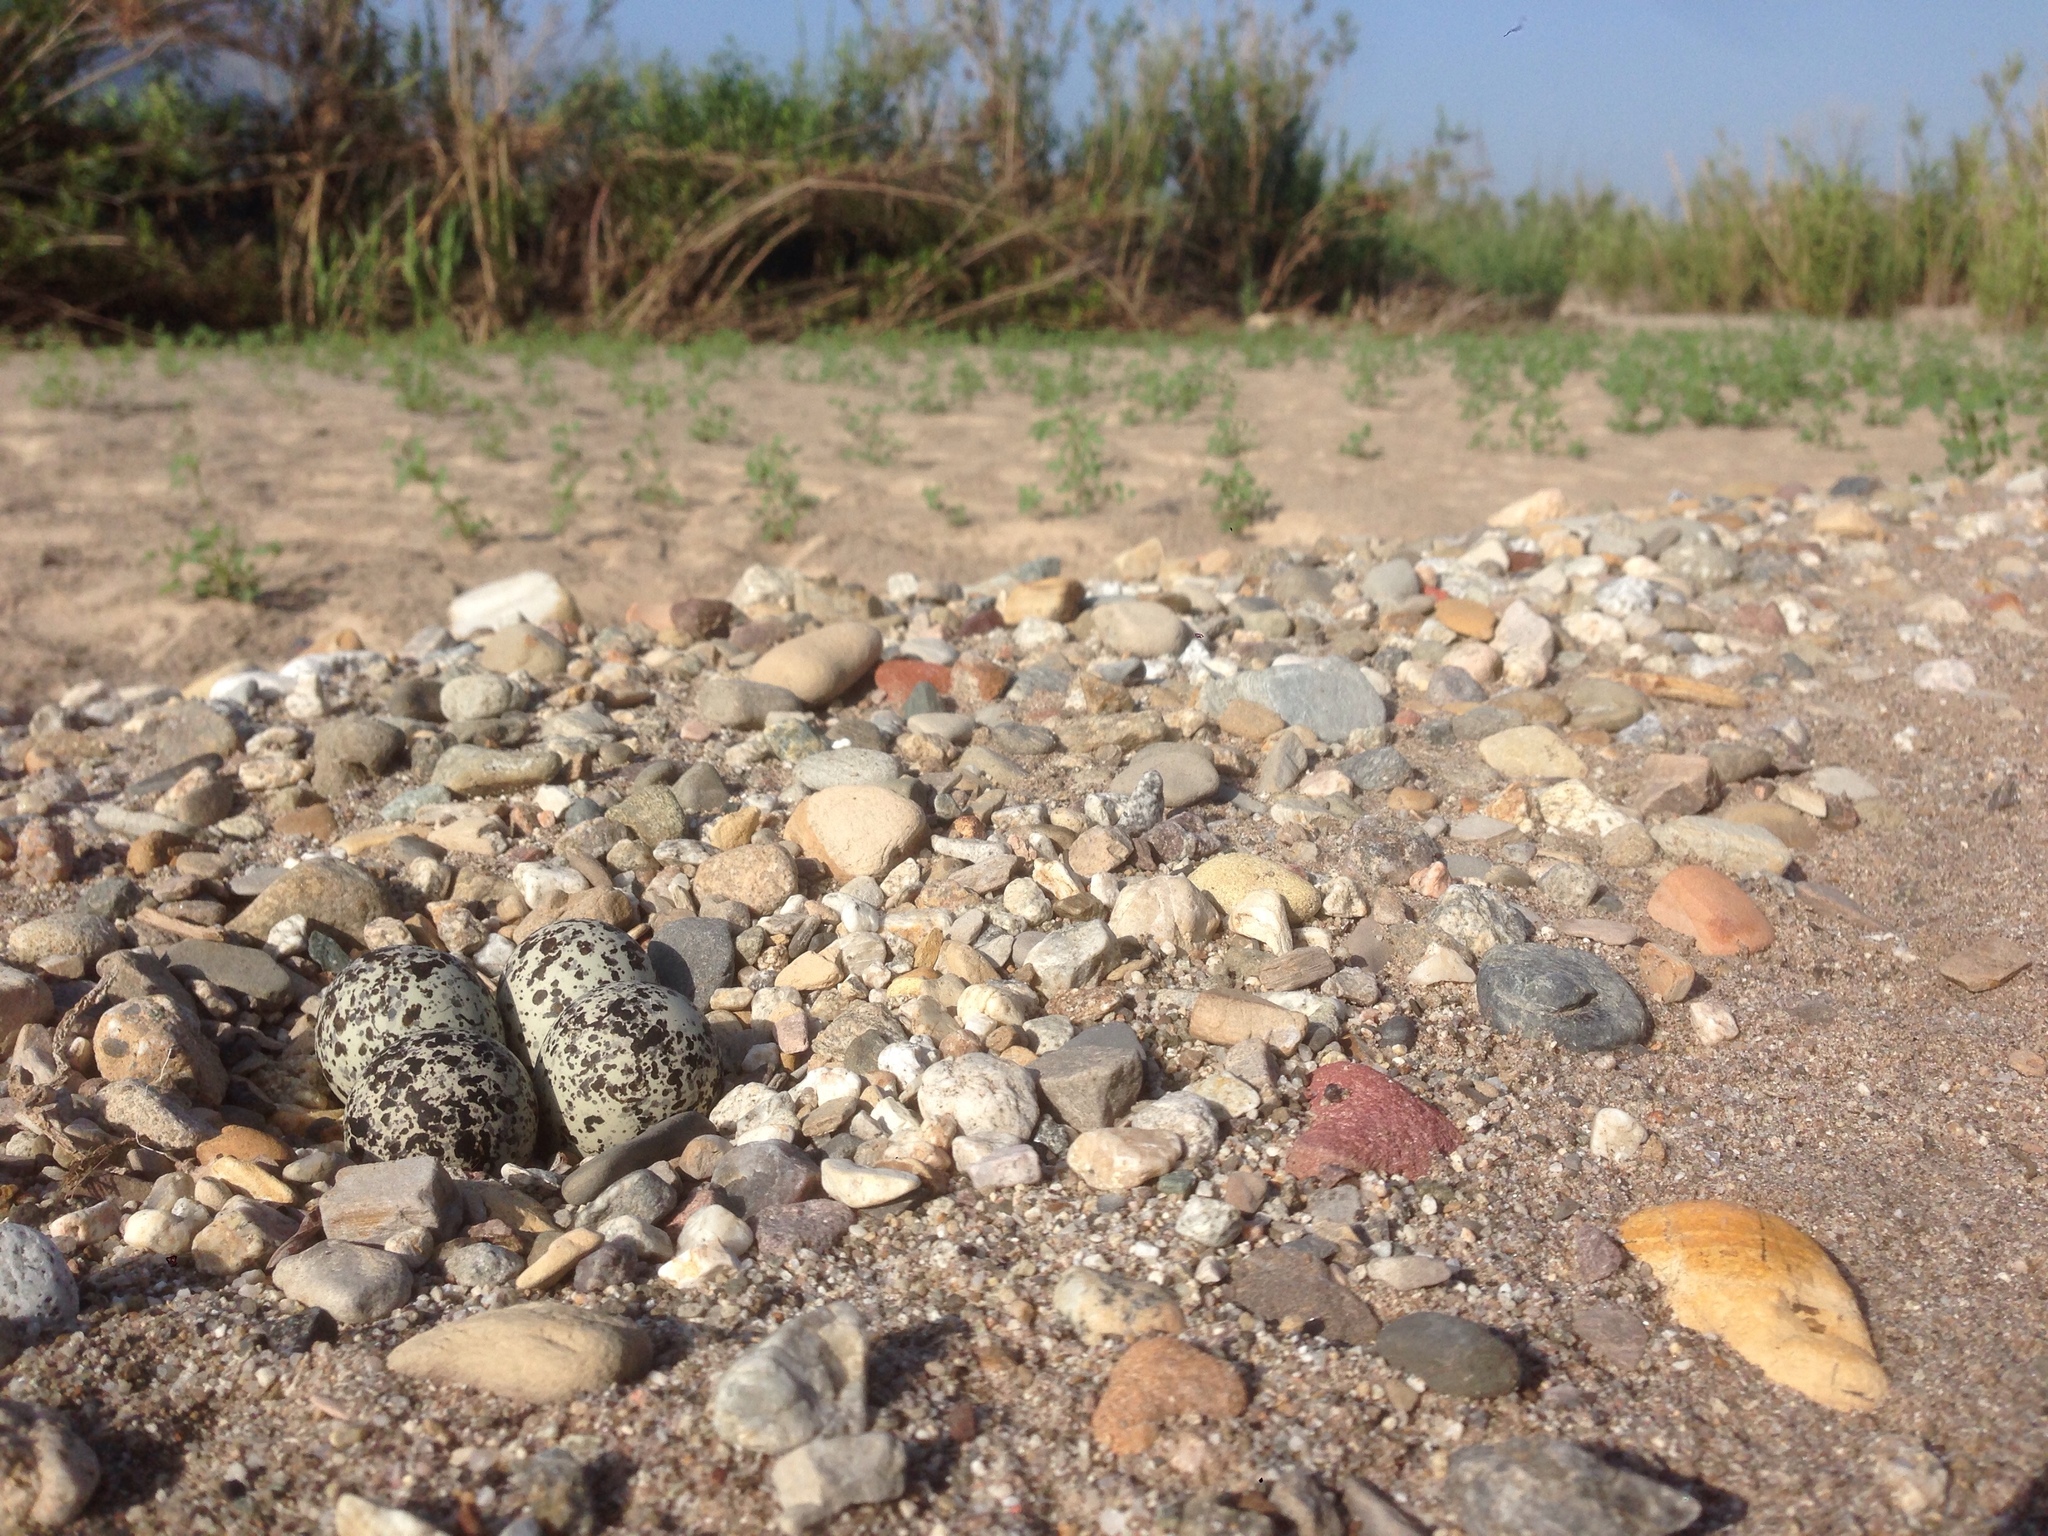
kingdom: Animalia
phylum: Chordata
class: Aves
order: Charadriiformes
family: Charadriidae
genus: Charadrius
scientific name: Charadrius vociferus
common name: Killdeer
